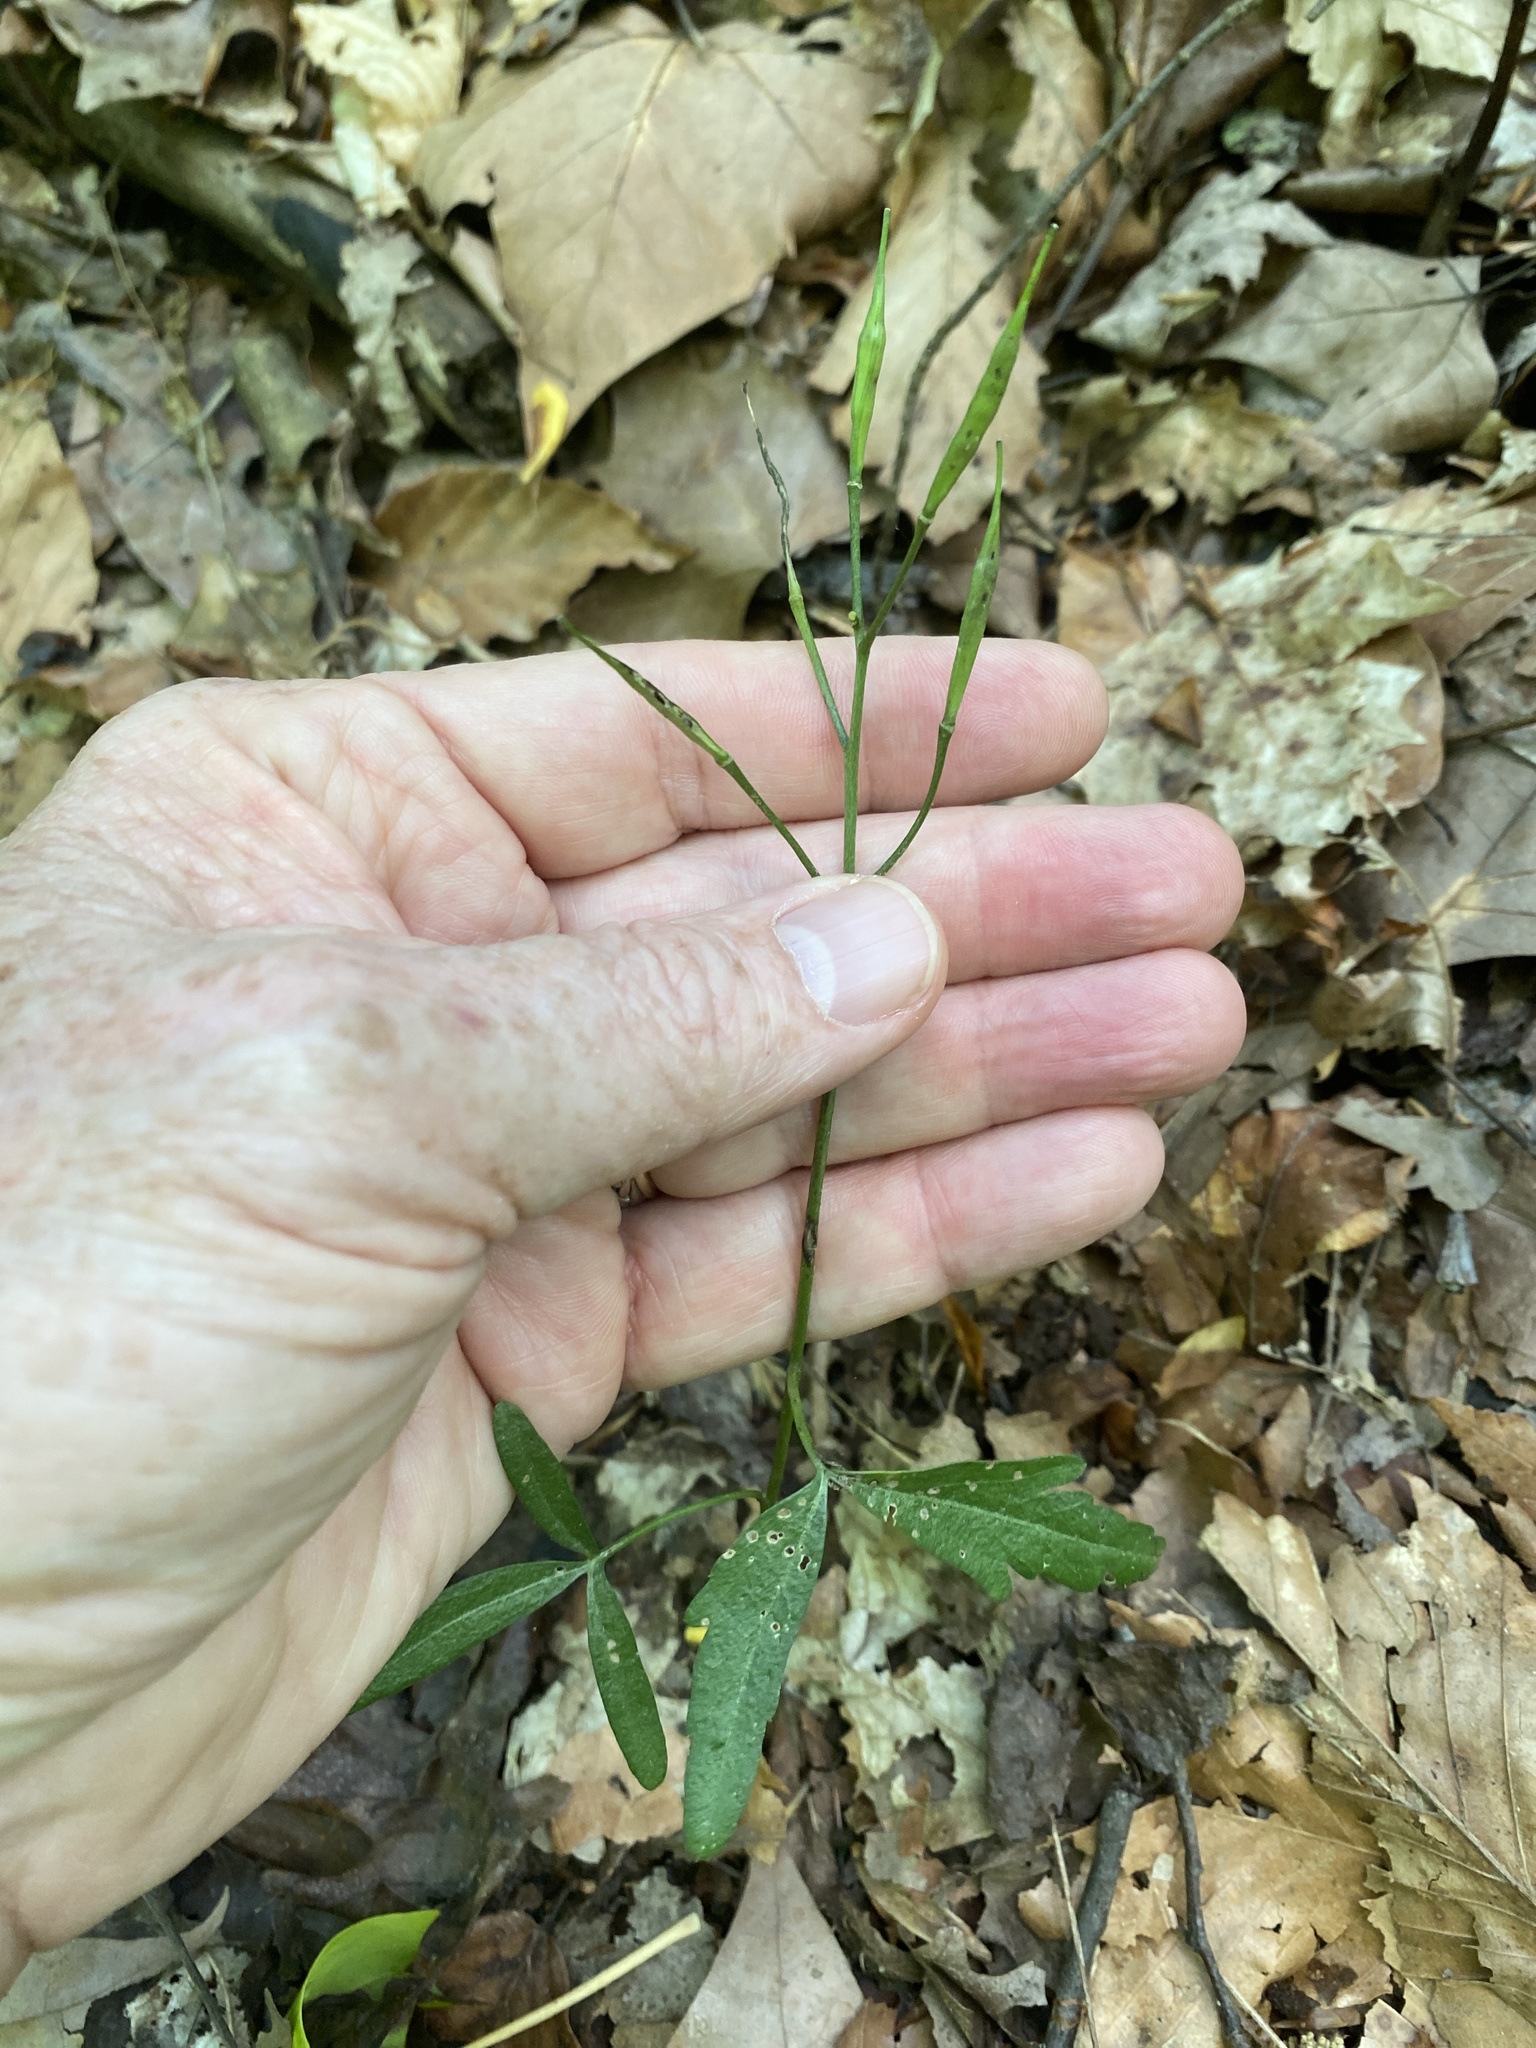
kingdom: Plantae
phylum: Tracheophyta
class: Magnoliopsida
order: Brassicales
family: Brassicaceae
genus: Cardamine
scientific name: Cardamine angustata
